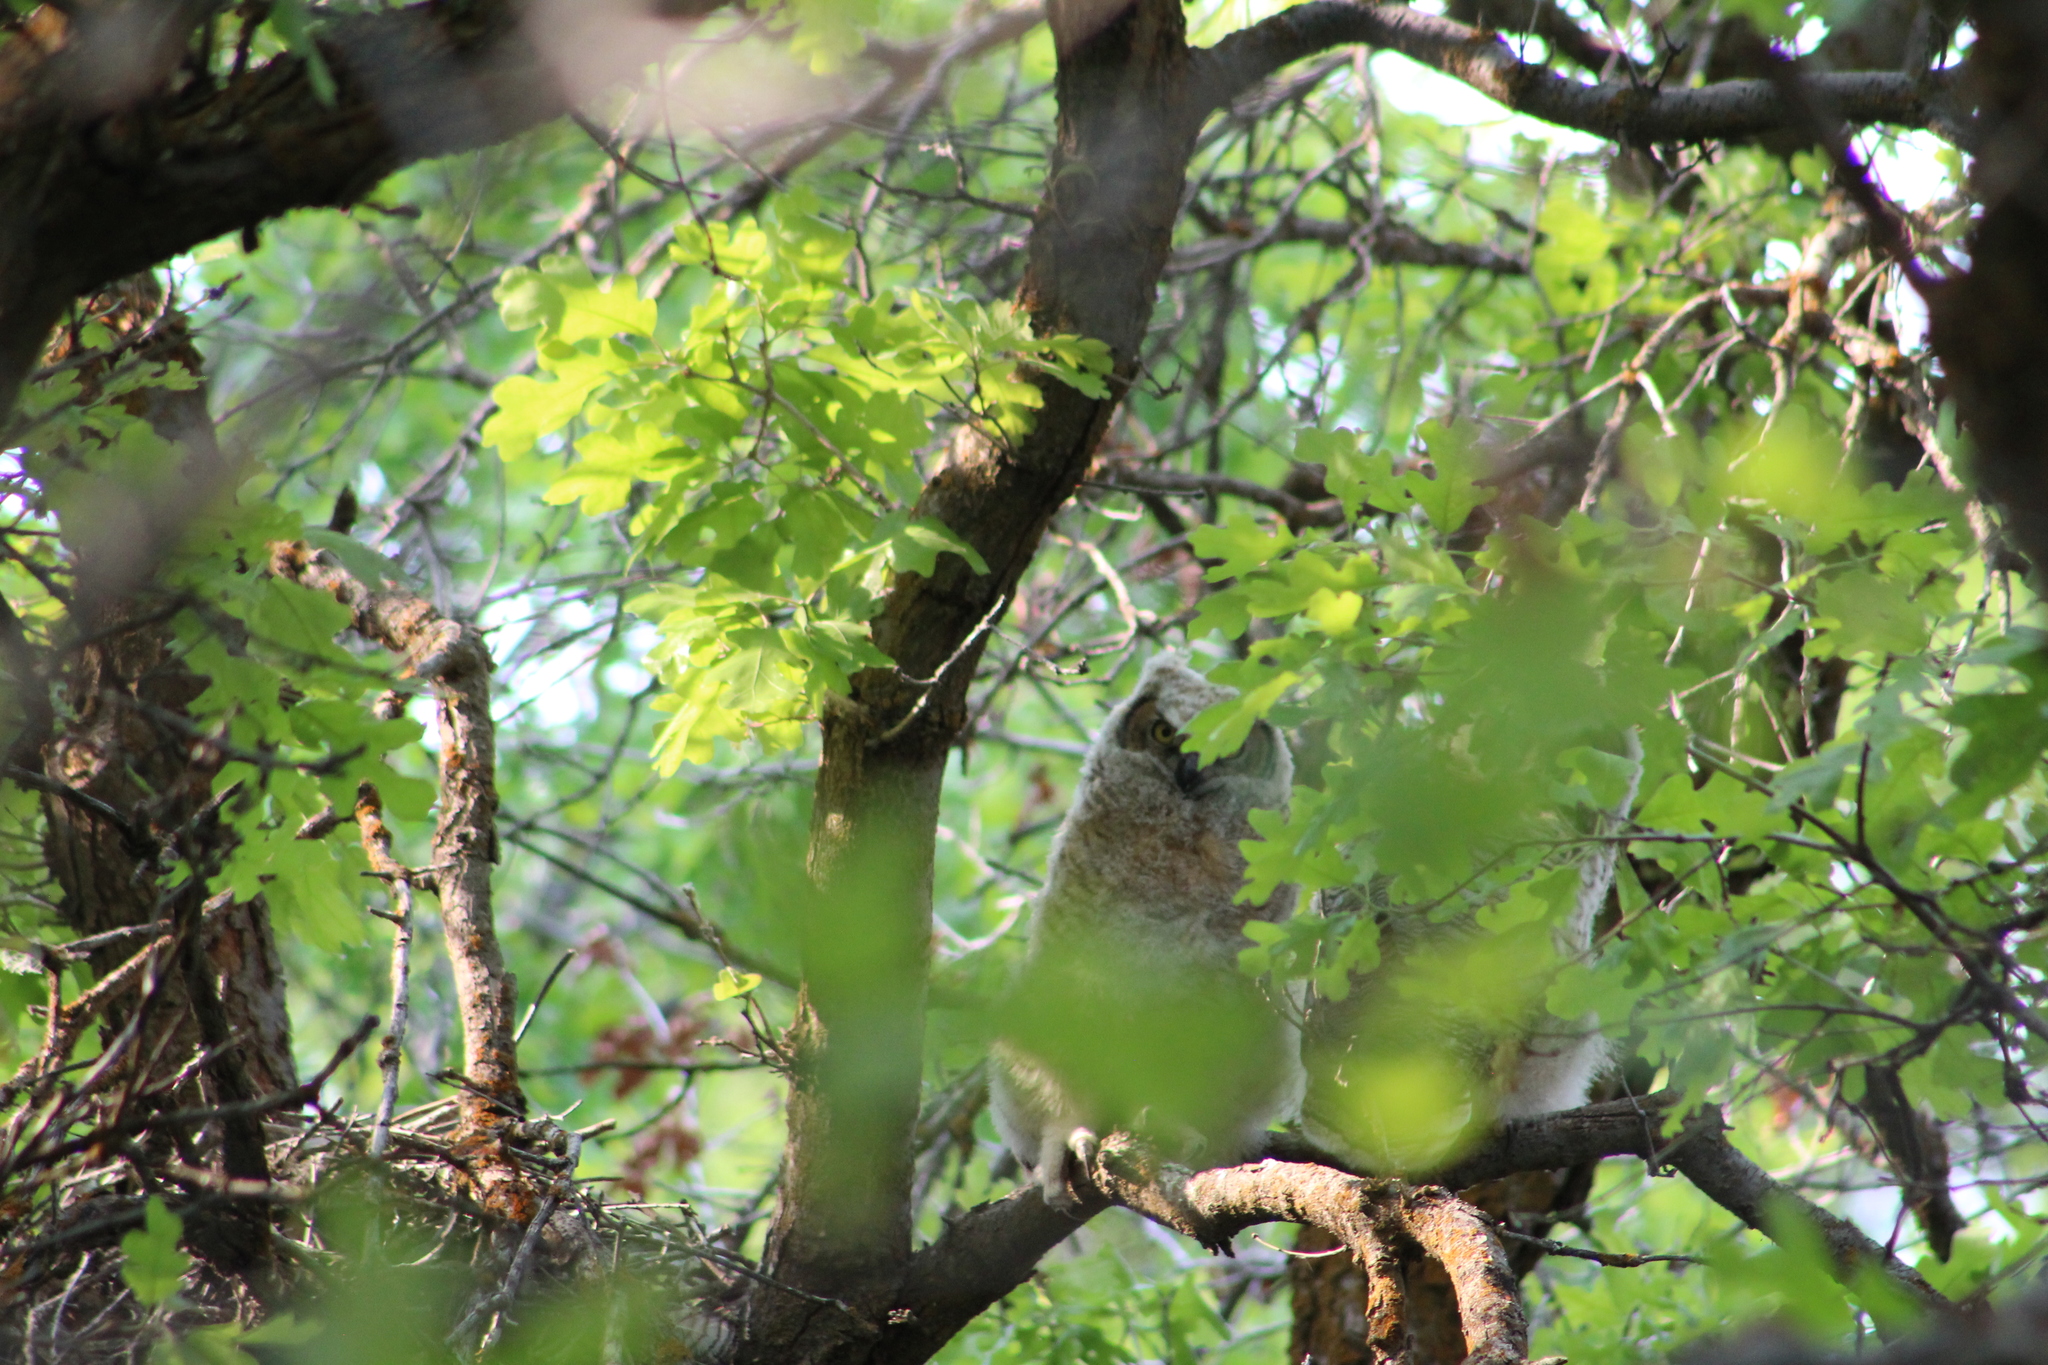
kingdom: Animalia
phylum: Chordata
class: Aves
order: Strigiformes
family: Strigidae
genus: Bubo
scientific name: Bubo virginianus
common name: Great horned owl
